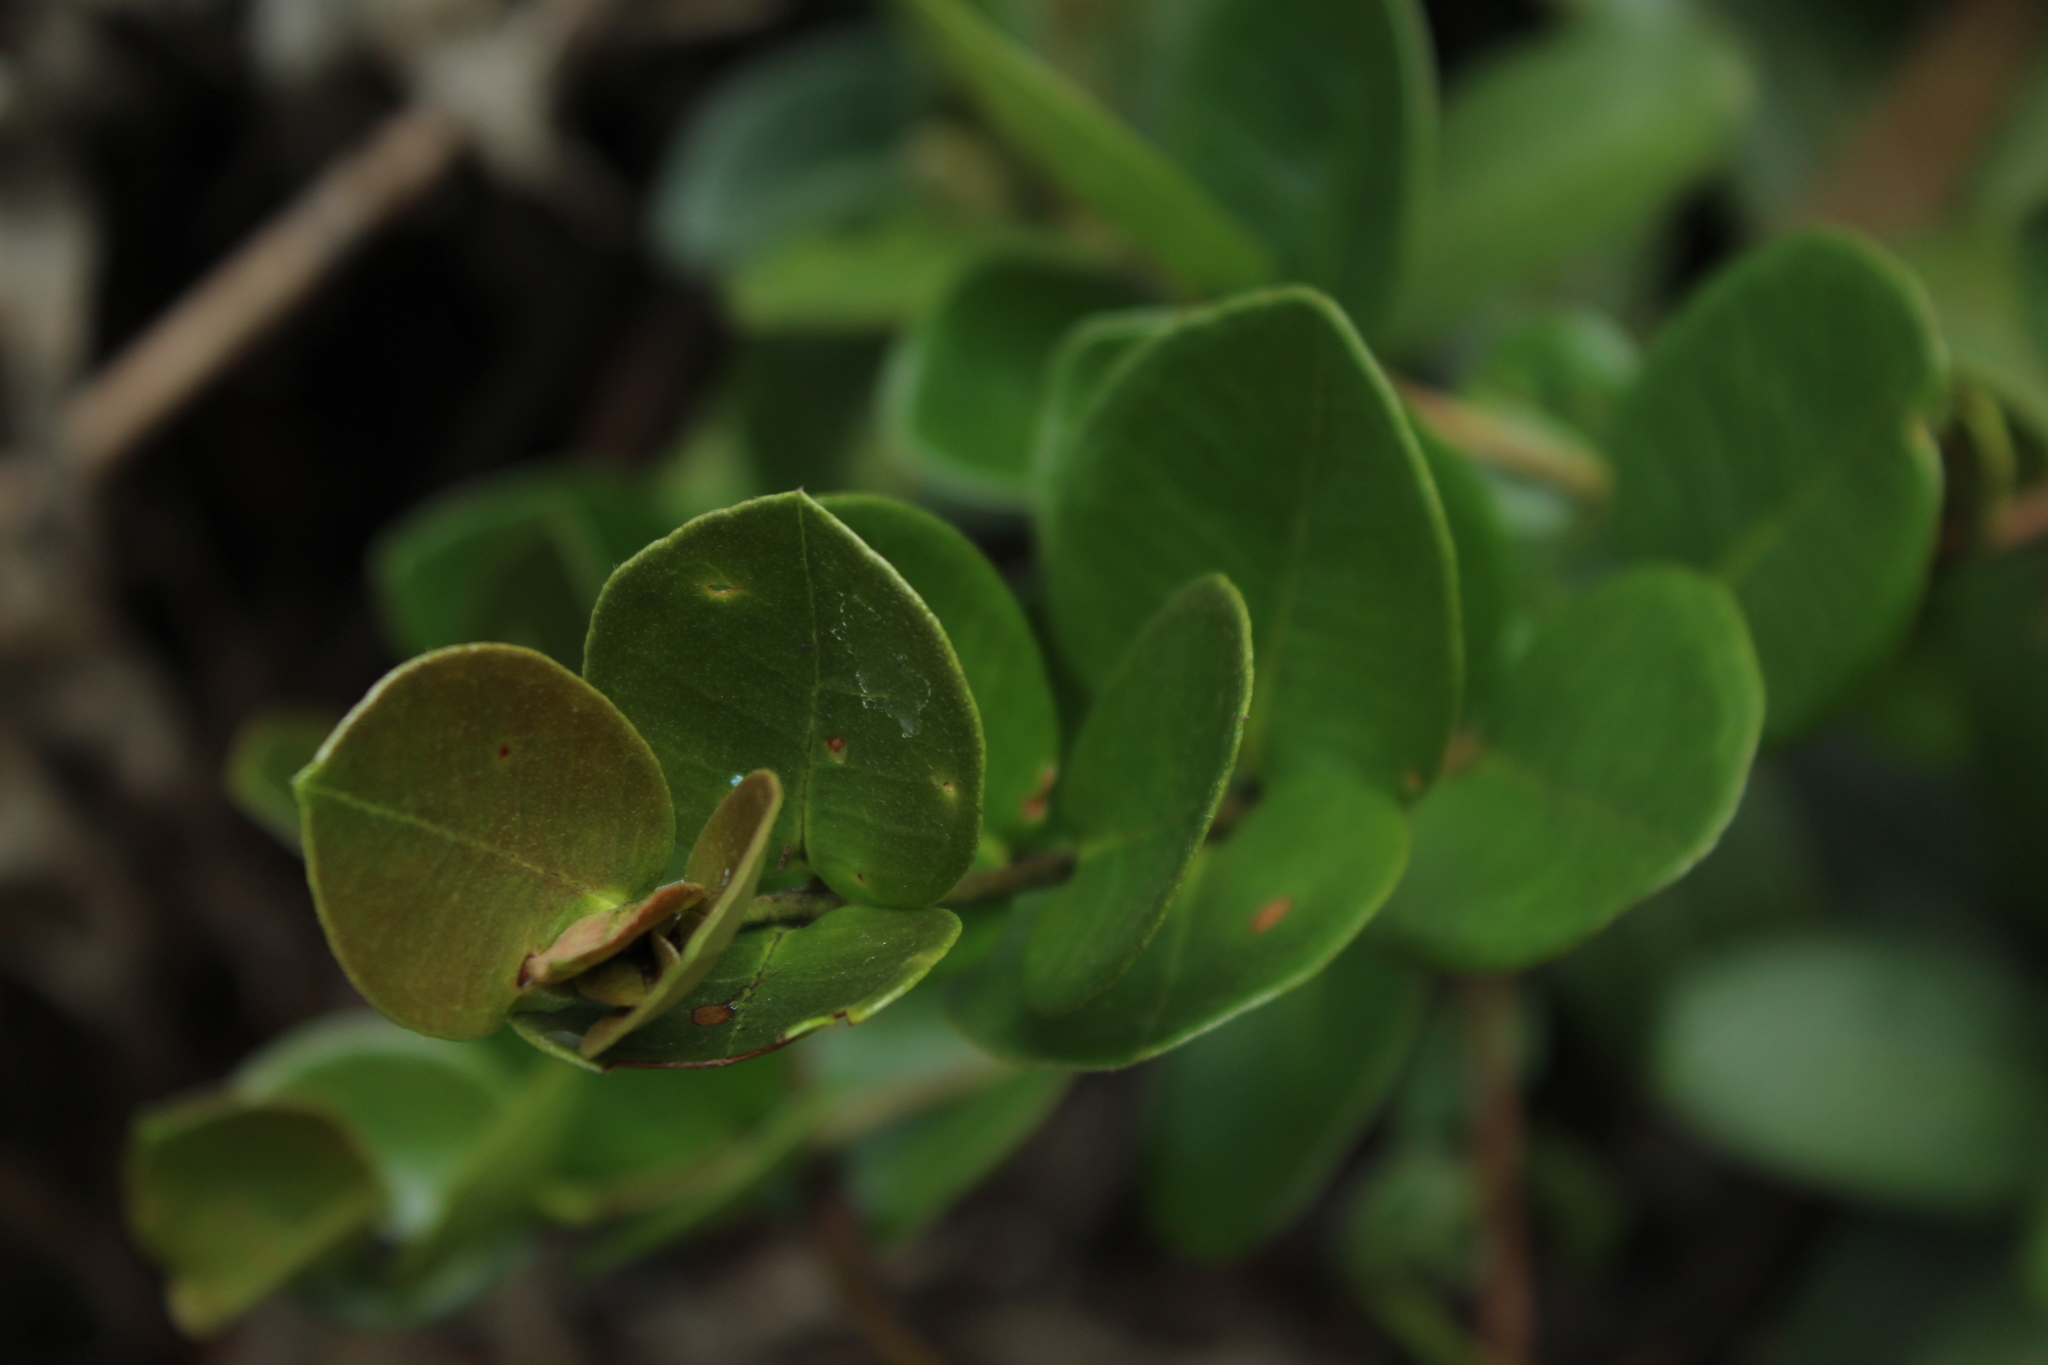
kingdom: Plantae
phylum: Tracheophyta
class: Magnoliopsida
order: Myrtales
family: Myrtaceae
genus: Myrcianthes
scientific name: Myrcianthes leucoxyla
